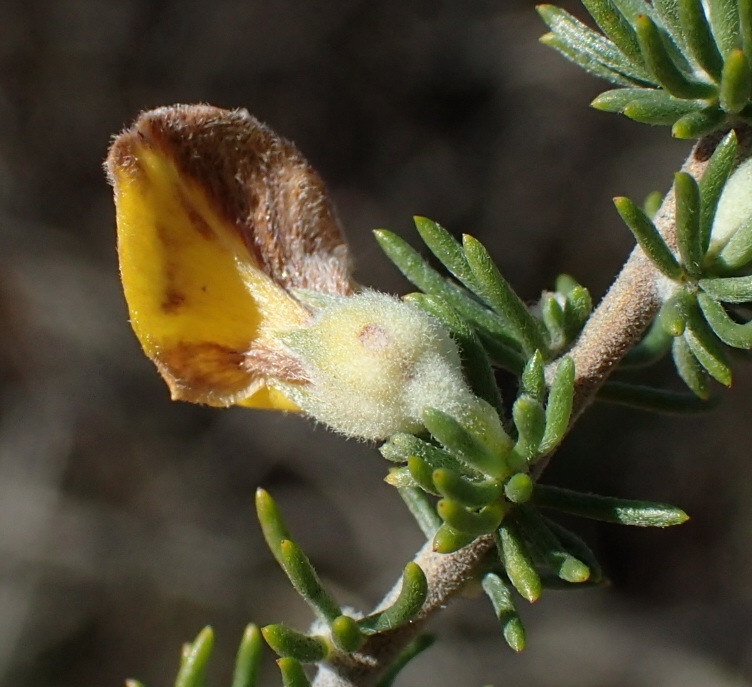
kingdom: Plantae
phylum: Tracheophyta
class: Magnoliopsida
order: Fabales
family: Fabaceae
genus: Aspalathus
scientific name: Aspalathus kougaensis
